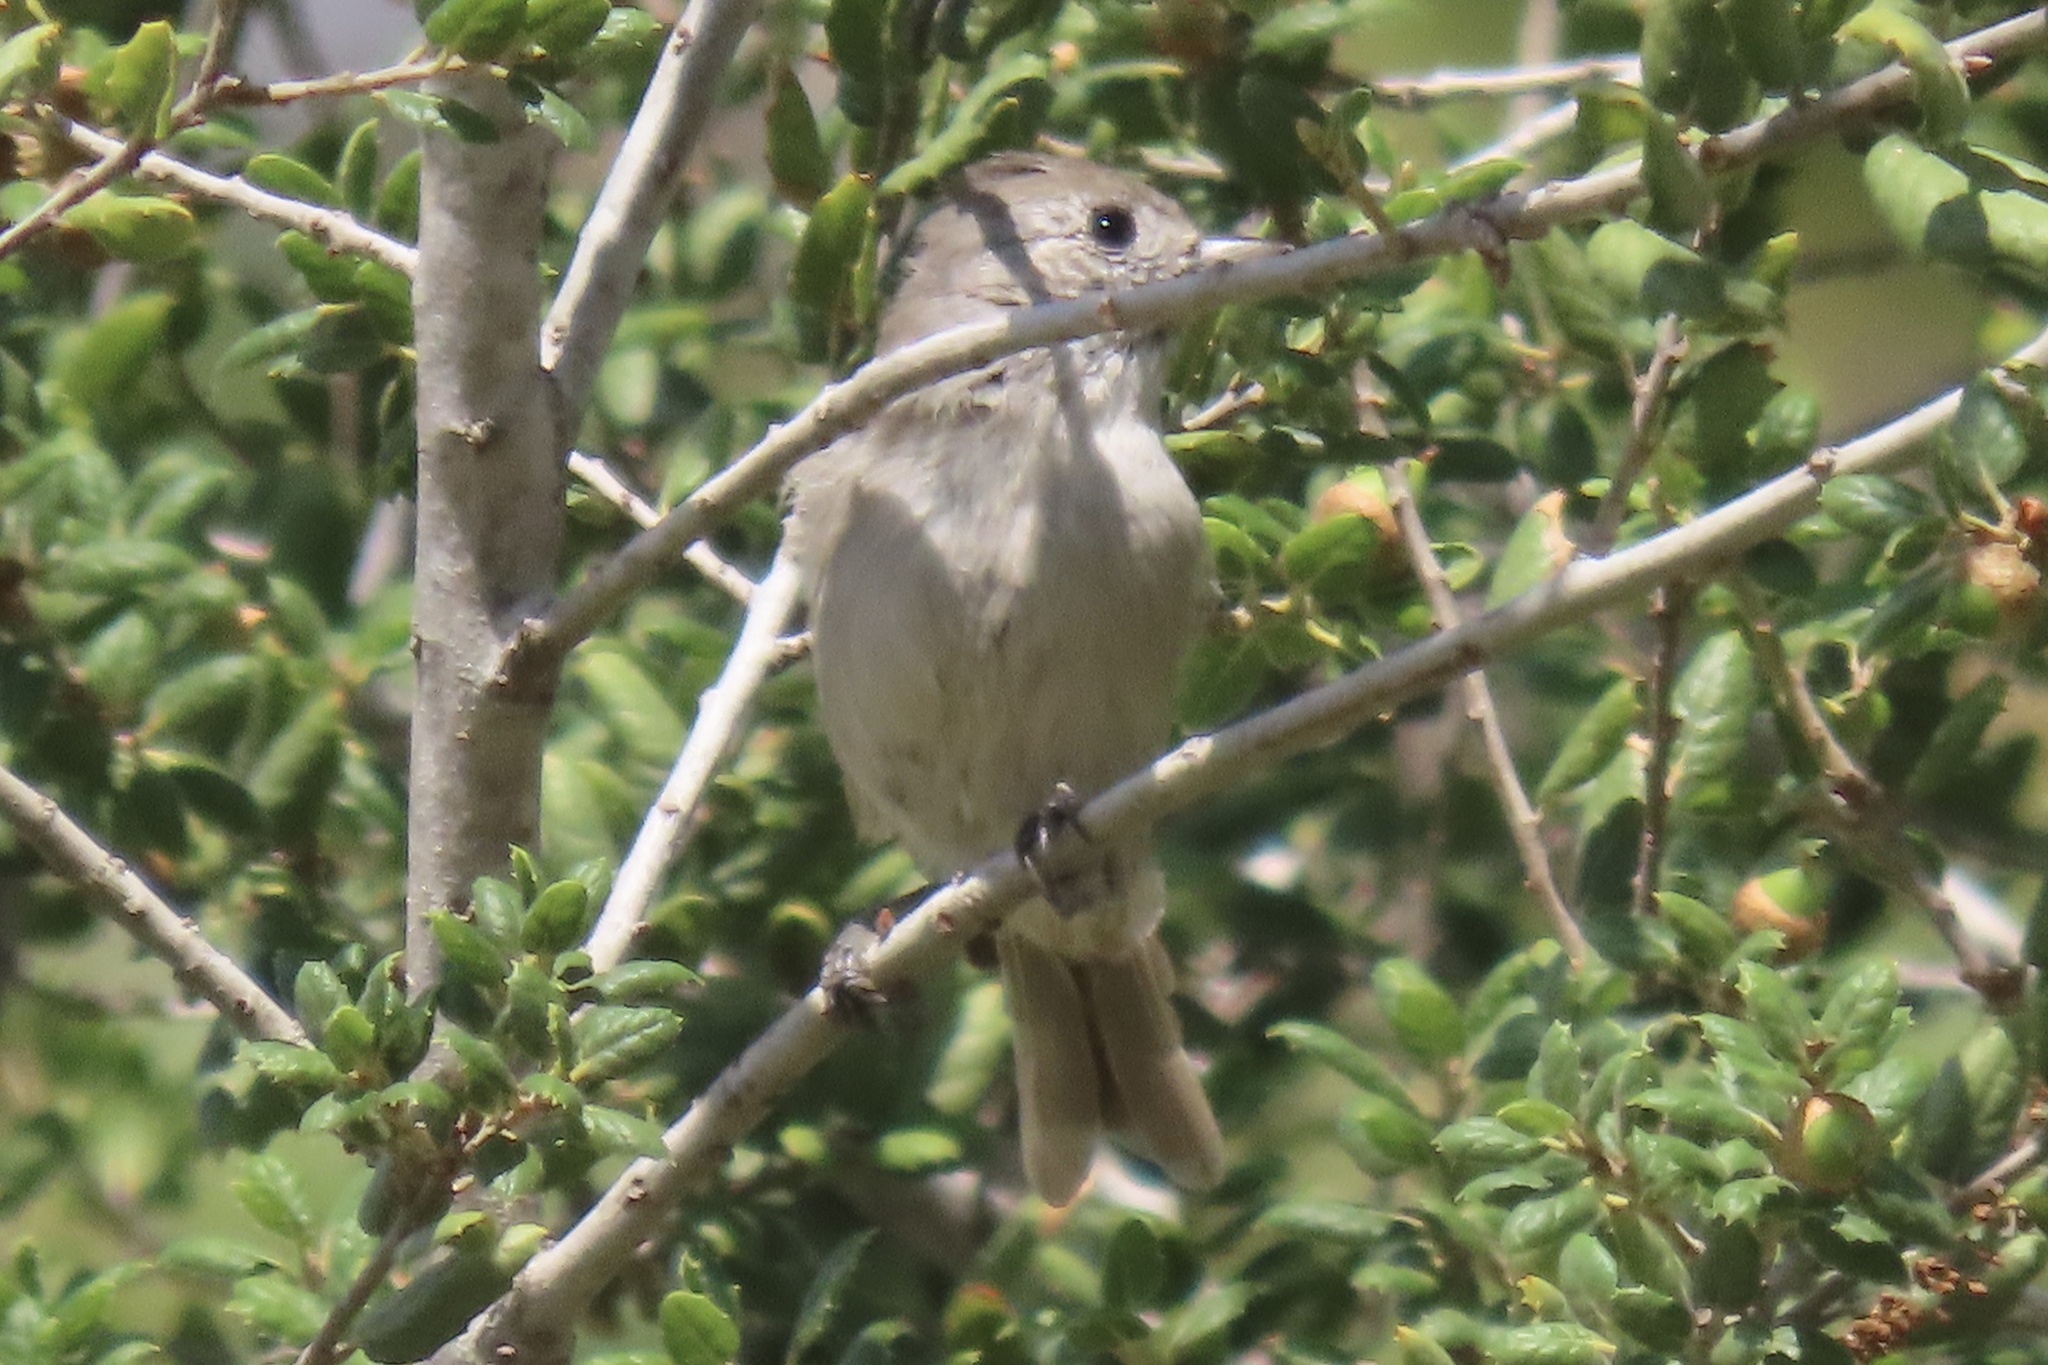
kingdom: Animalia
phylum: Chordata
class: Aves
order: Passeriformes
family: Paridae
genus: Baeolophus
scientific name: Baeolophus inornatus
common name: Oak titmouse
